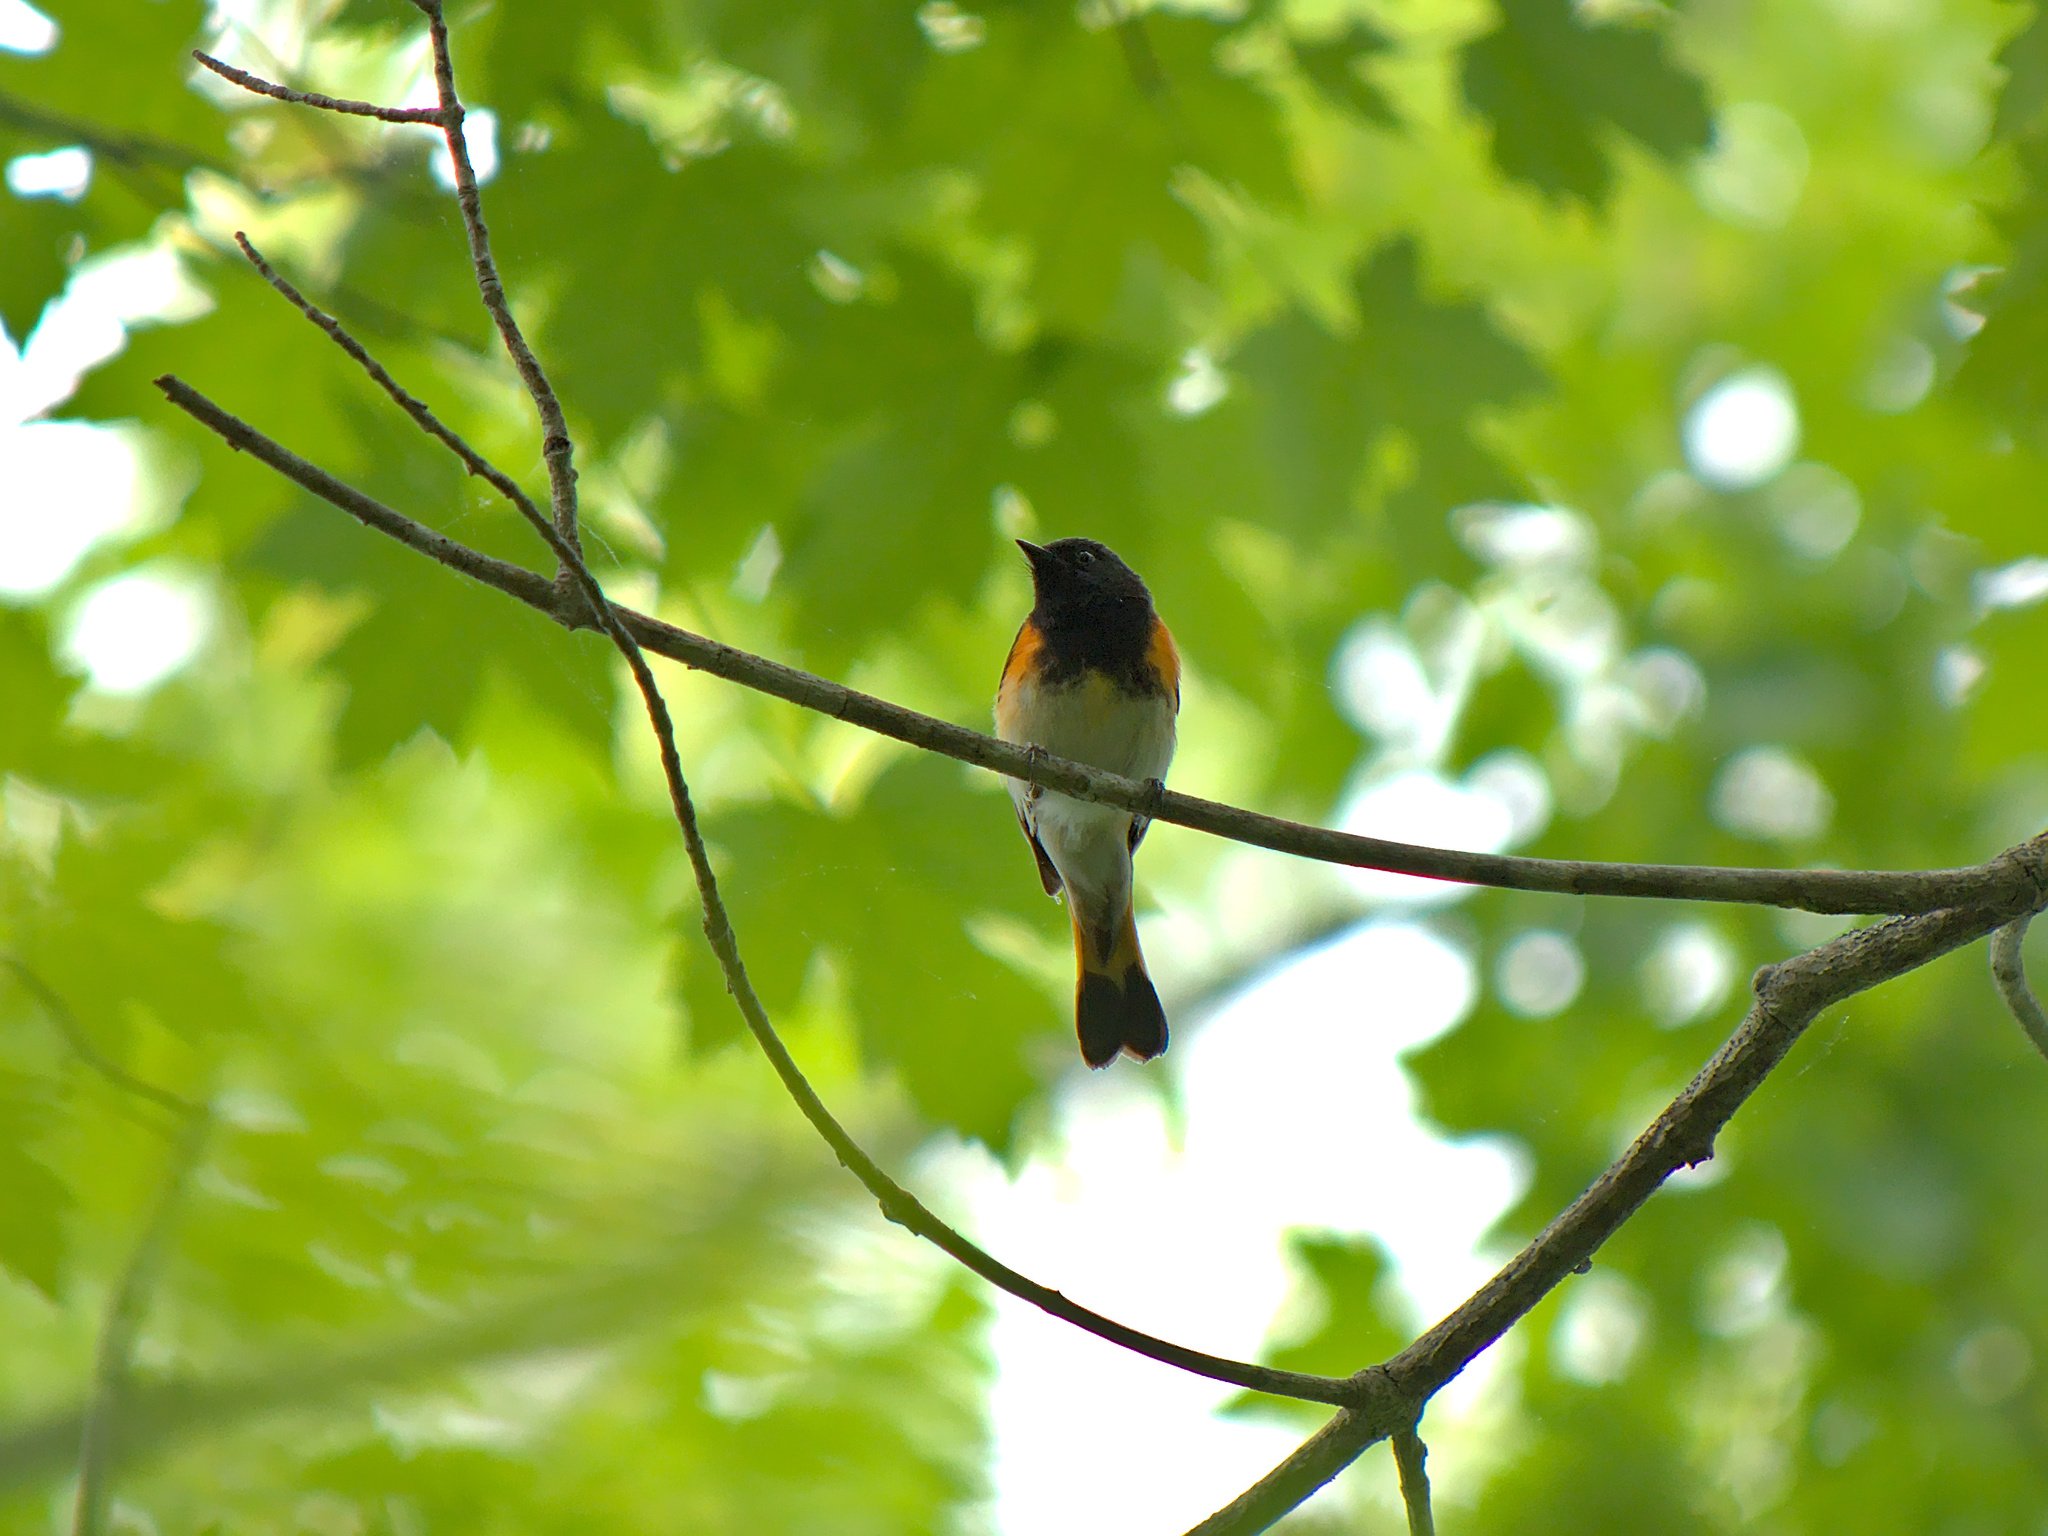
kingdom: Animalia
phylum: Chordata
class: Aves
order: Passeriformes
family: Parulidae
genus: Setophaga
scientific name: Setophaga ruticilla
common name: American redstart
